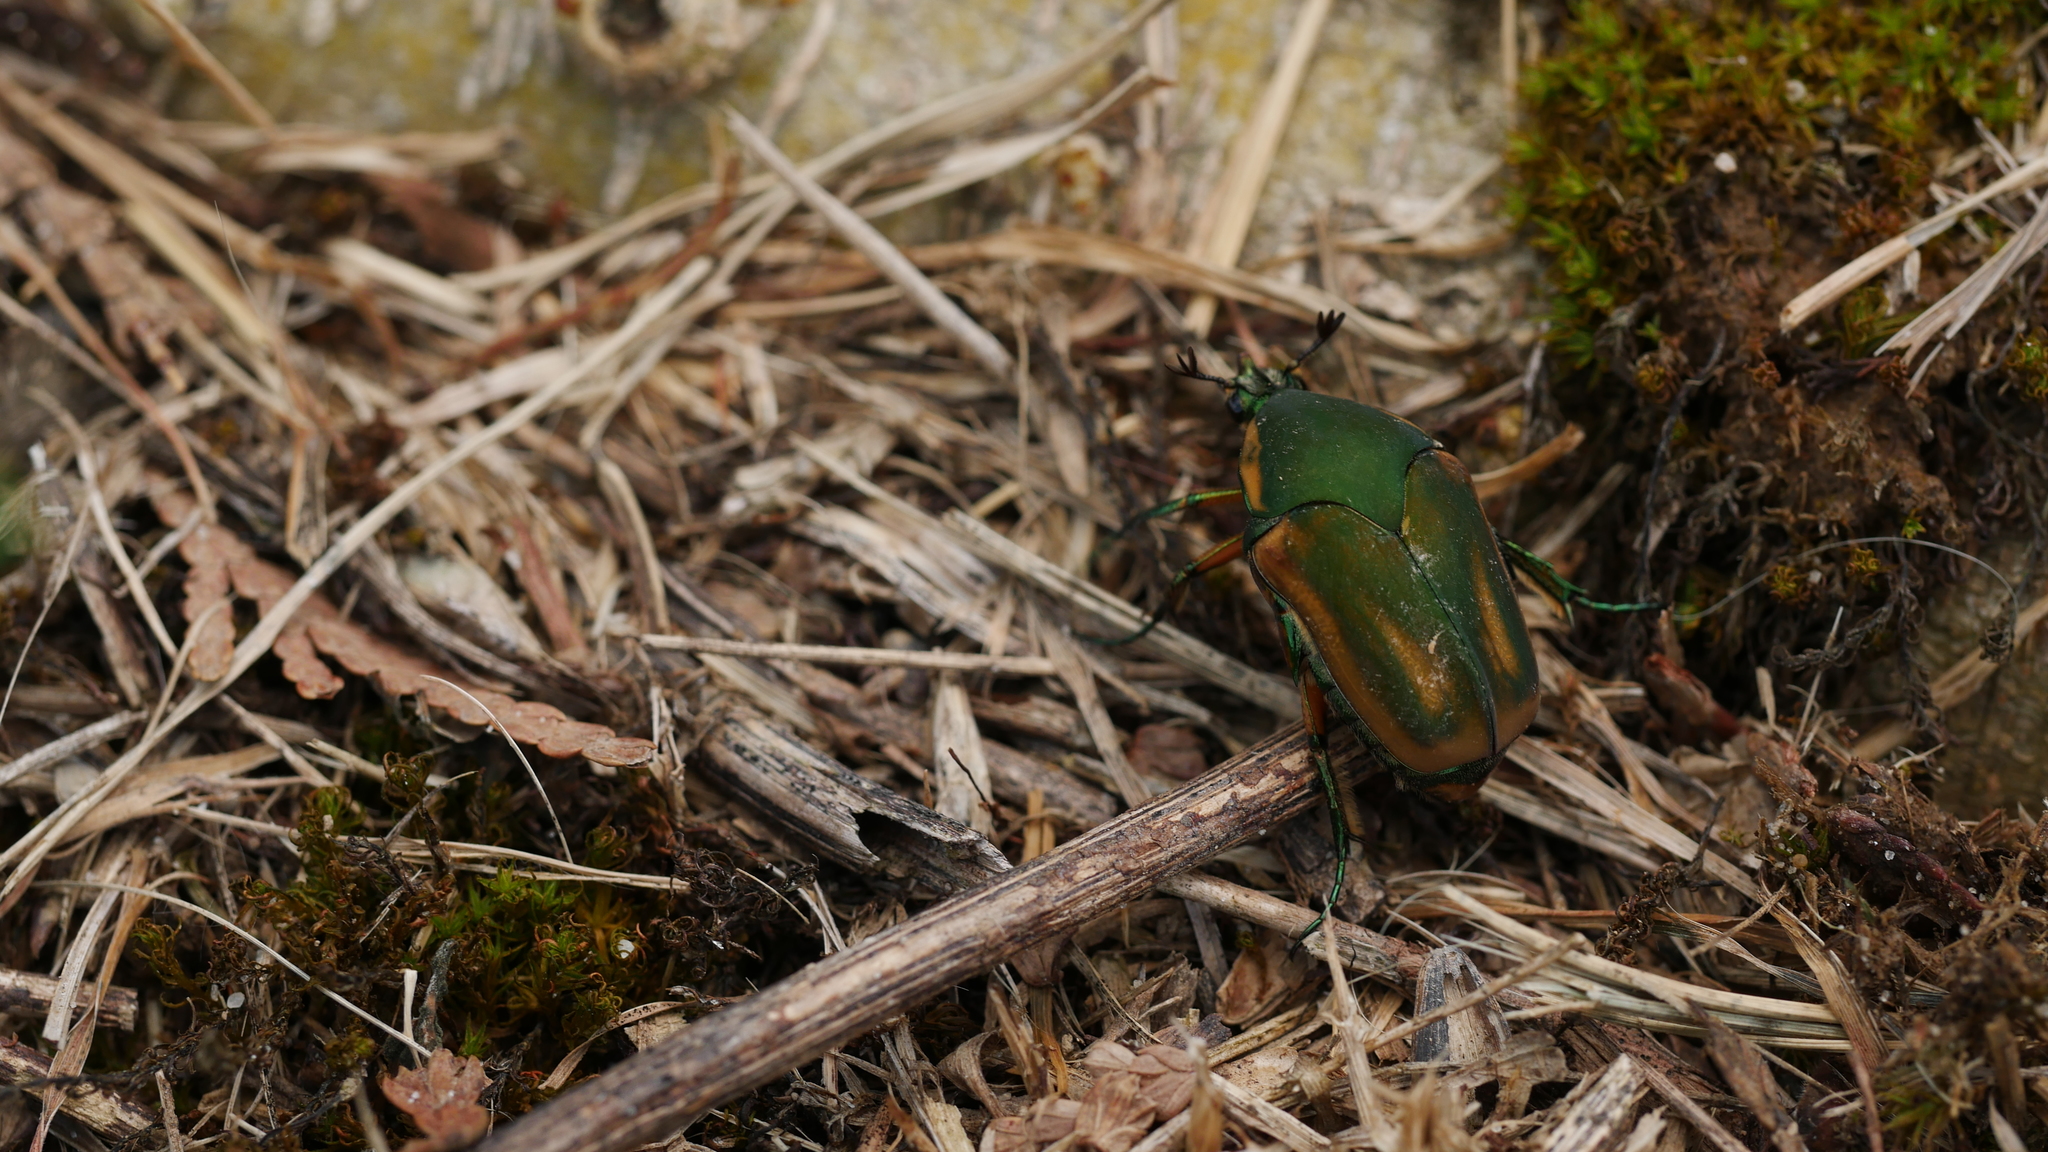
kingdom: Animalia
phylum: Arthropoda
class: Insecta
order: Coleoptera
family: Scarabaeidae
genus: Cotinis
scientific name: Cotinis nitida
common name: Common green june beetle
